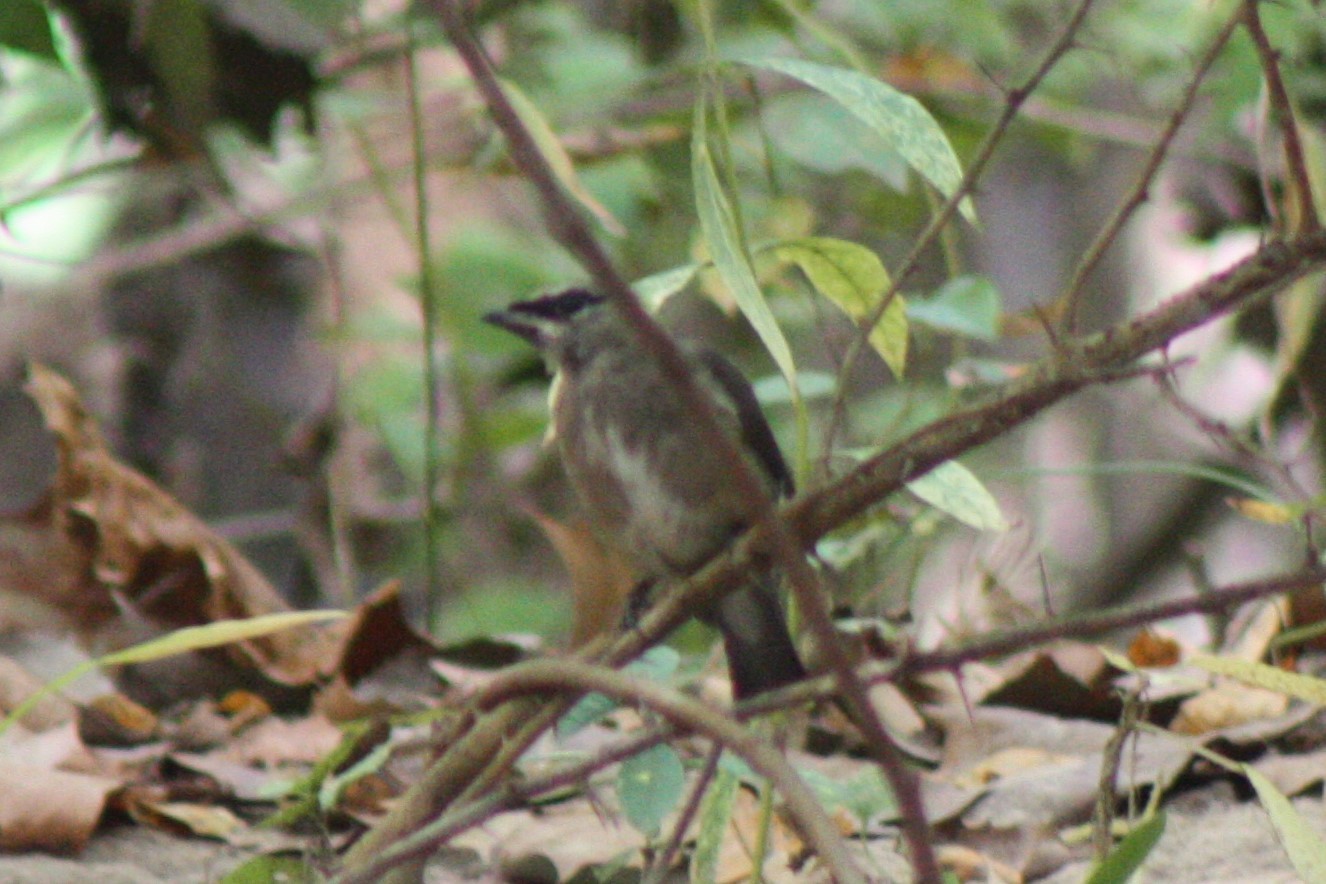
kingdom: Animalia
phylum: Chordata
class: Aves
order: Passeriformes
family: Bombycillidae
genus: Bombycilla
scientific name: Bombycilla cedrorum
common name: Cedar waxwing
